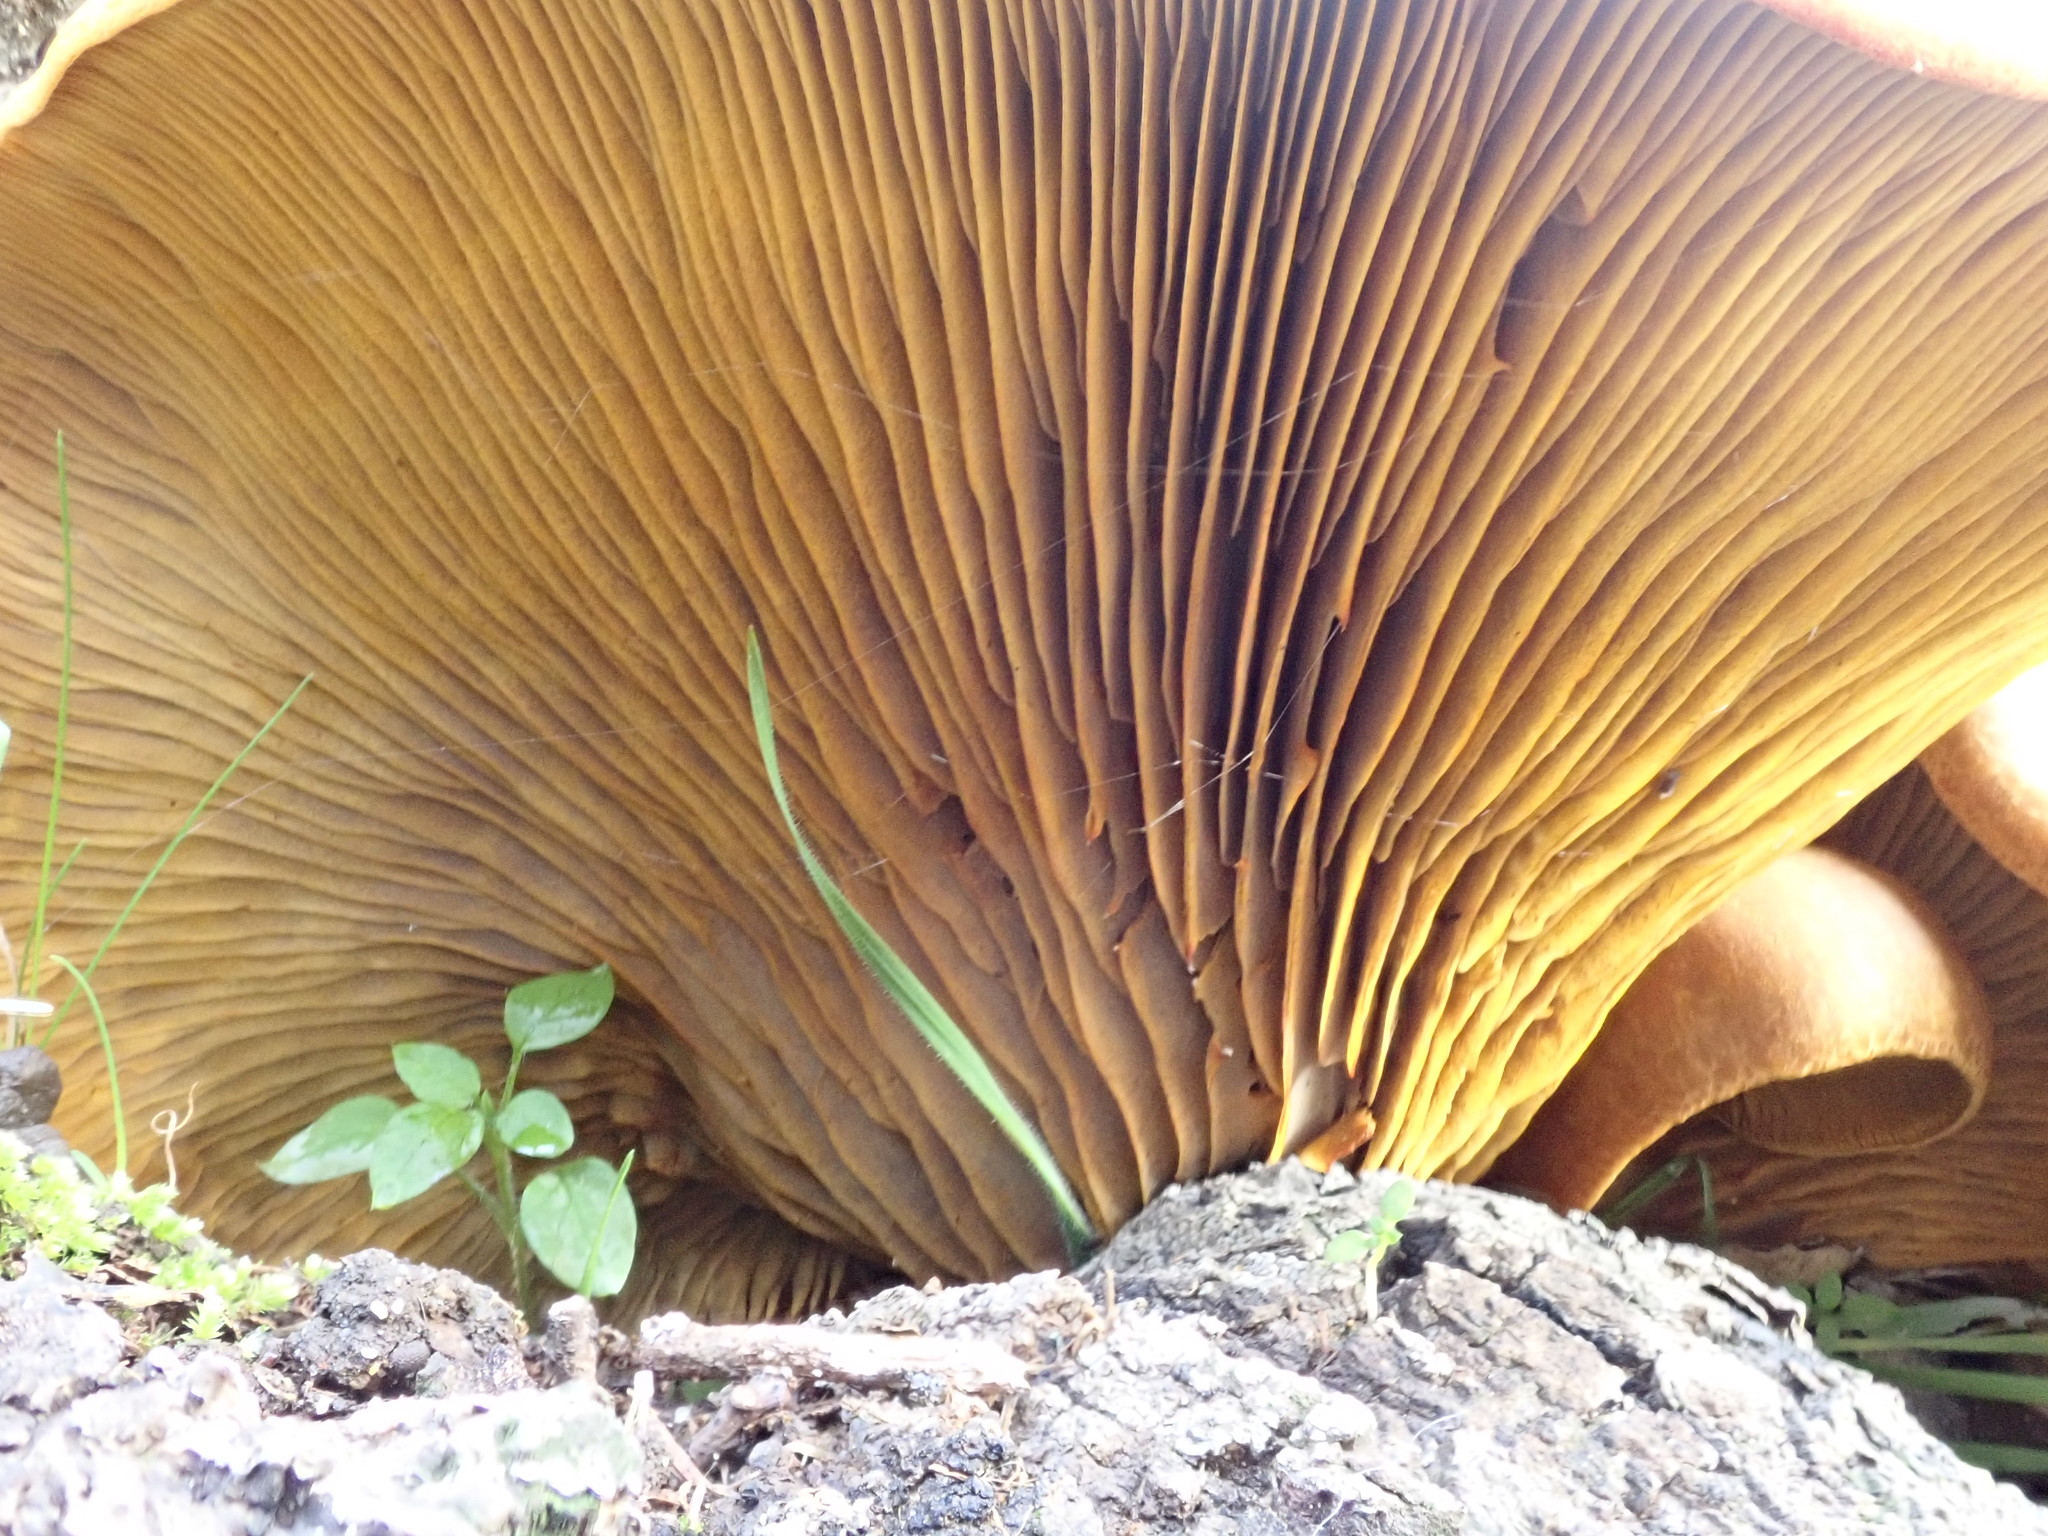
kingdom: Fungi
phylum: Basidiomycota
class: Agaricomycetes
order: Agaricales
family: Omphalotaceae
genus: Omphalotus
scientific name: Omphalotus olivascens
